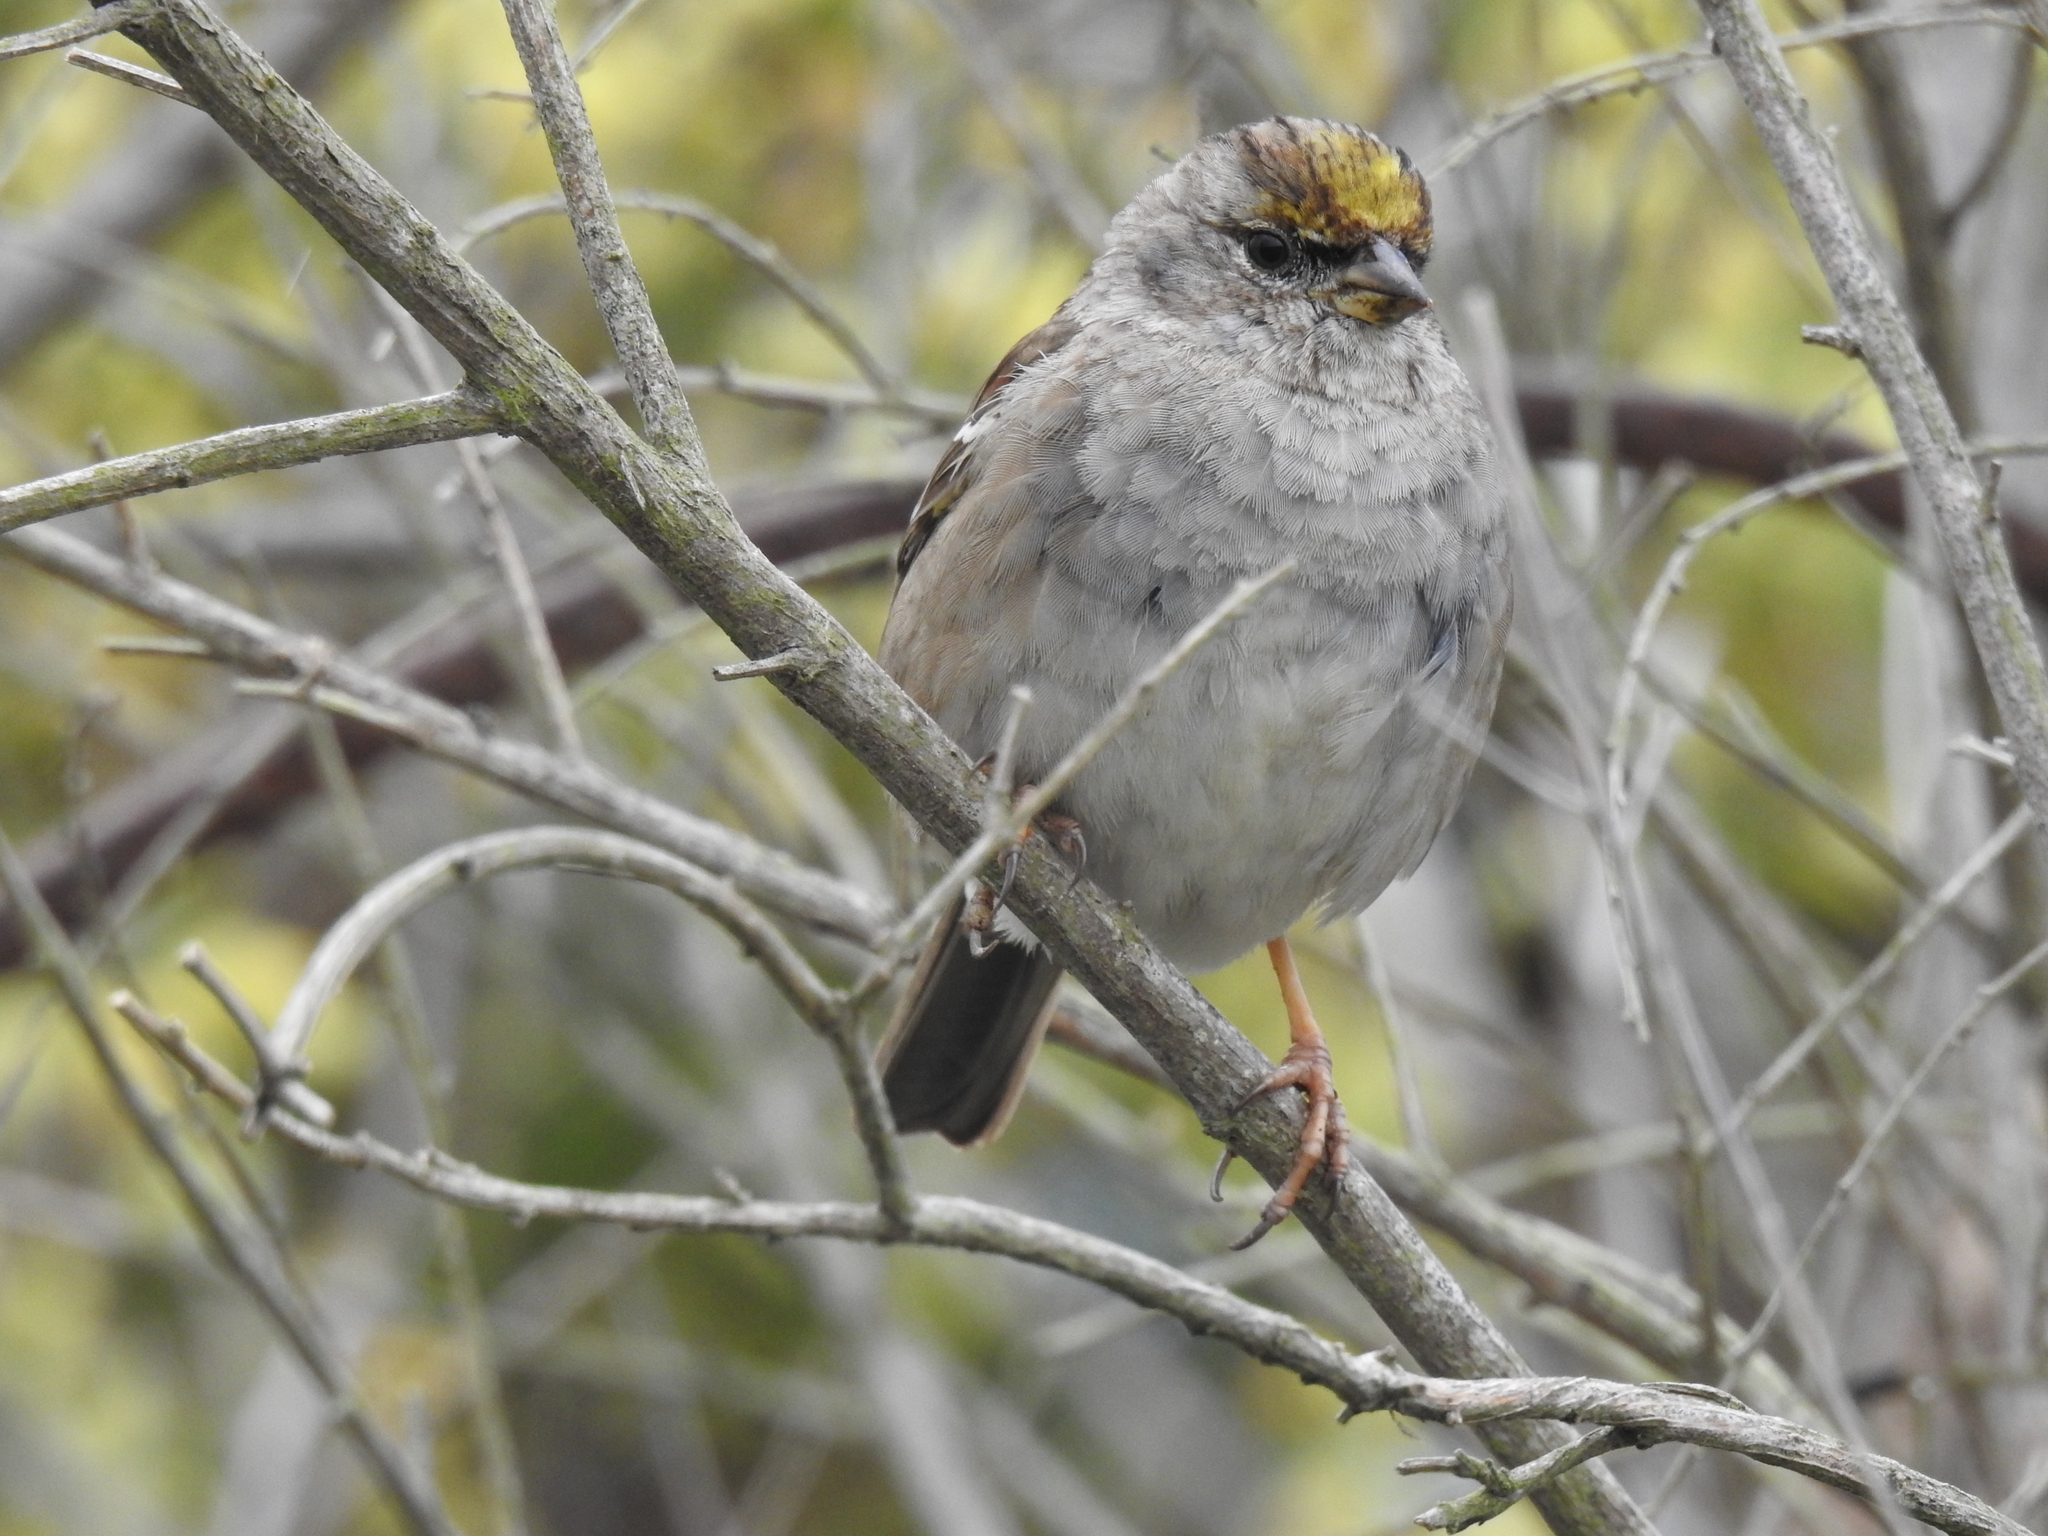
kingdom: Animalia
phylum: Chordata
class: Aves
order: Passeriformes
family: Passerellidae
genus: Zonotrichia
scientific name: Zonotrichia atricapilla
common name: Golden-crowned sparrow
